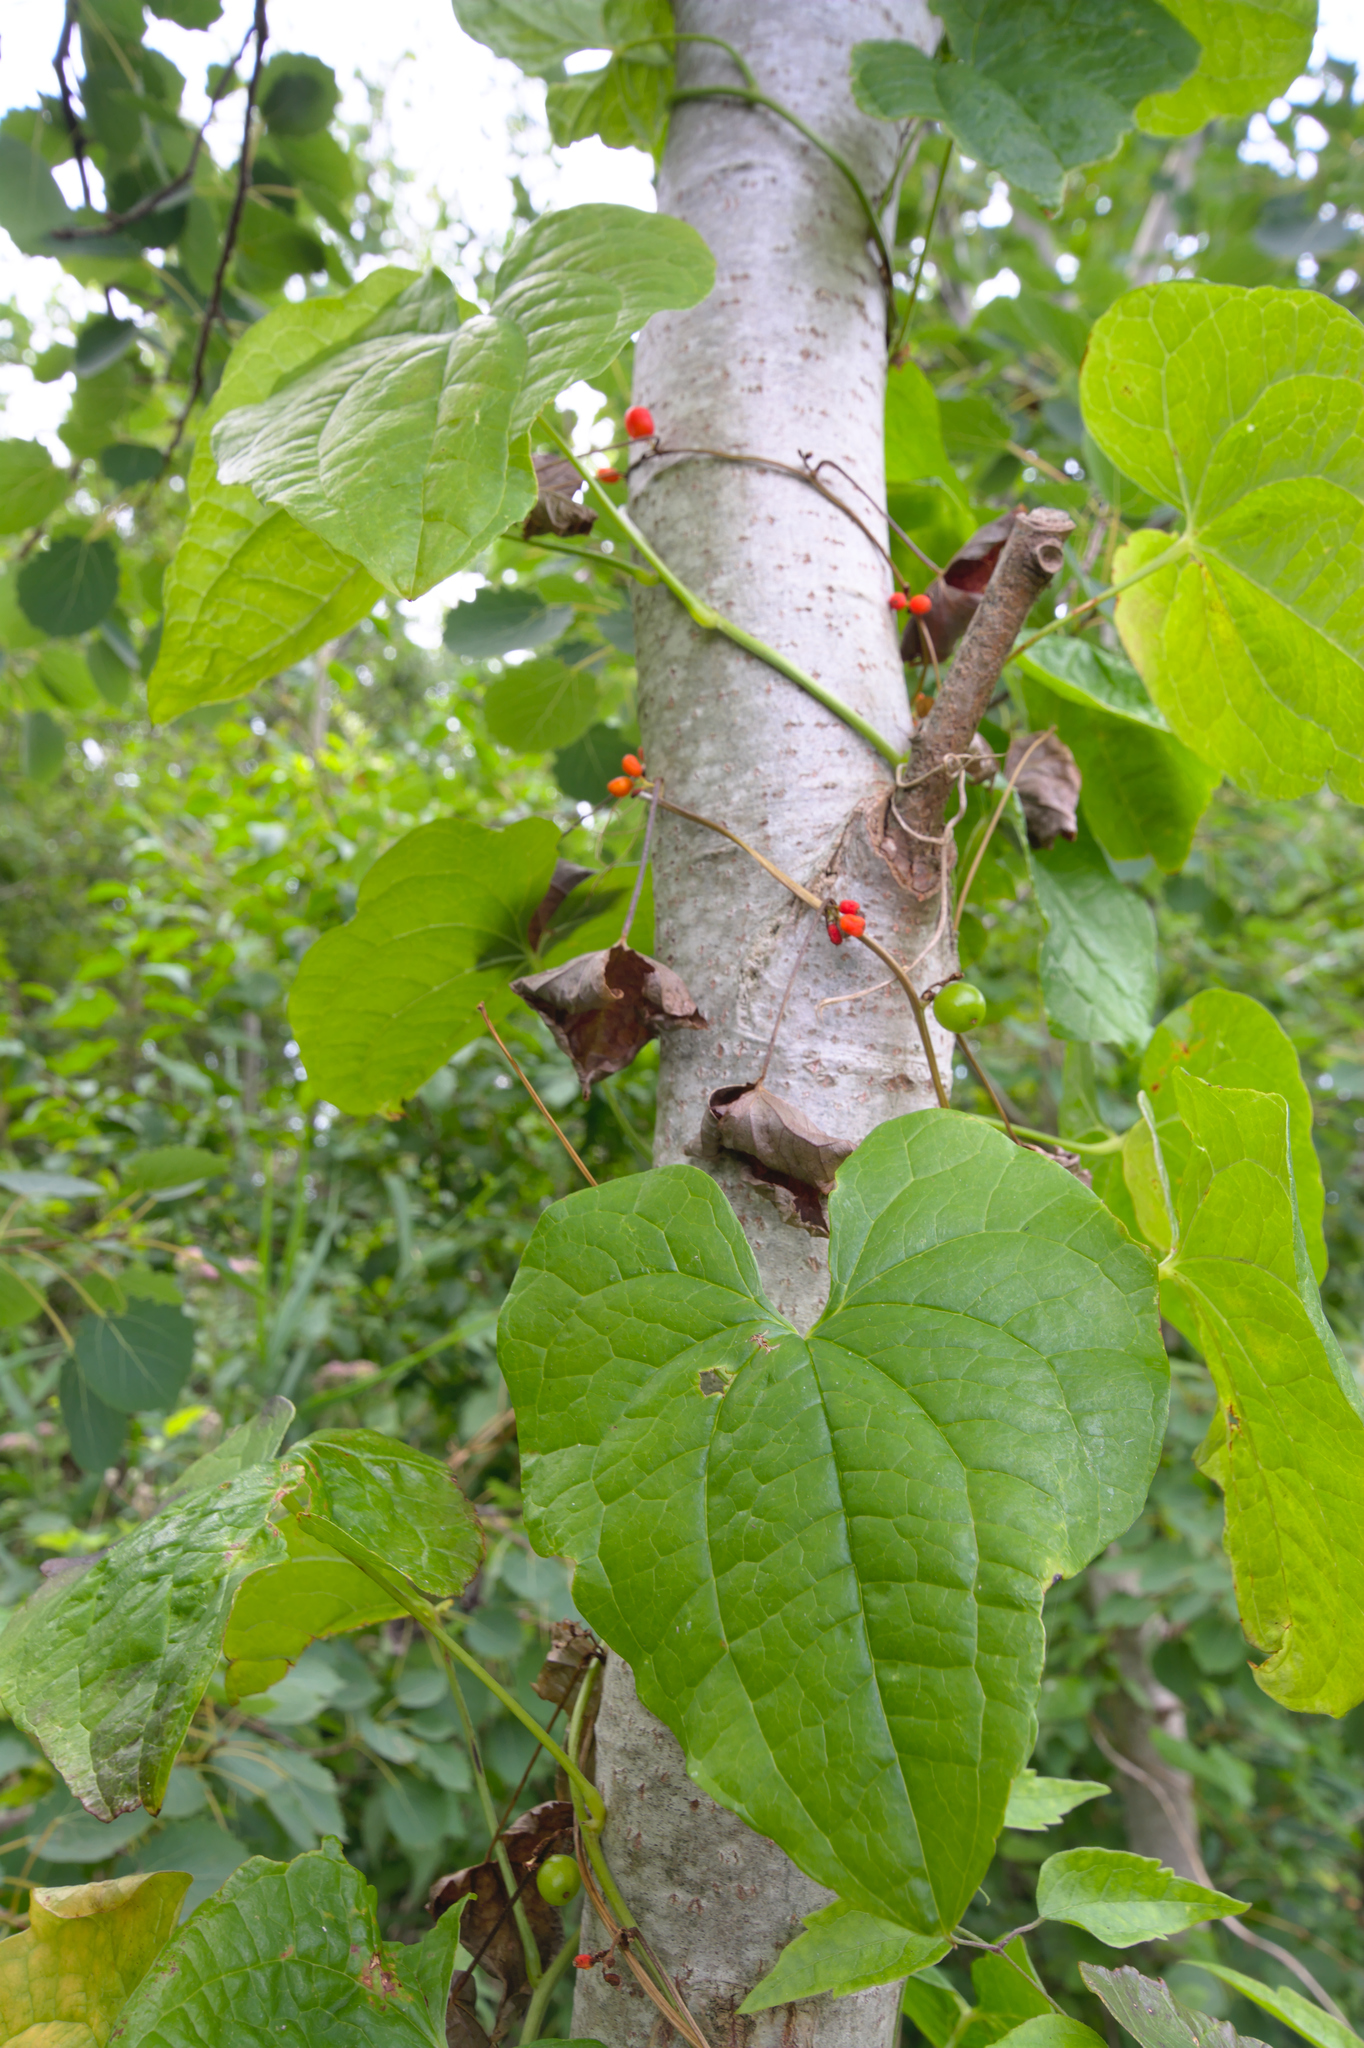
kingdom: Plantae
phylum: Tracheophyta
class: Liliopsida
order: Dioscoreales
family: Dioscoreaceae
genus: Dioscorea
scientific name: Dioscorea communis
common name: Black-bindweed
